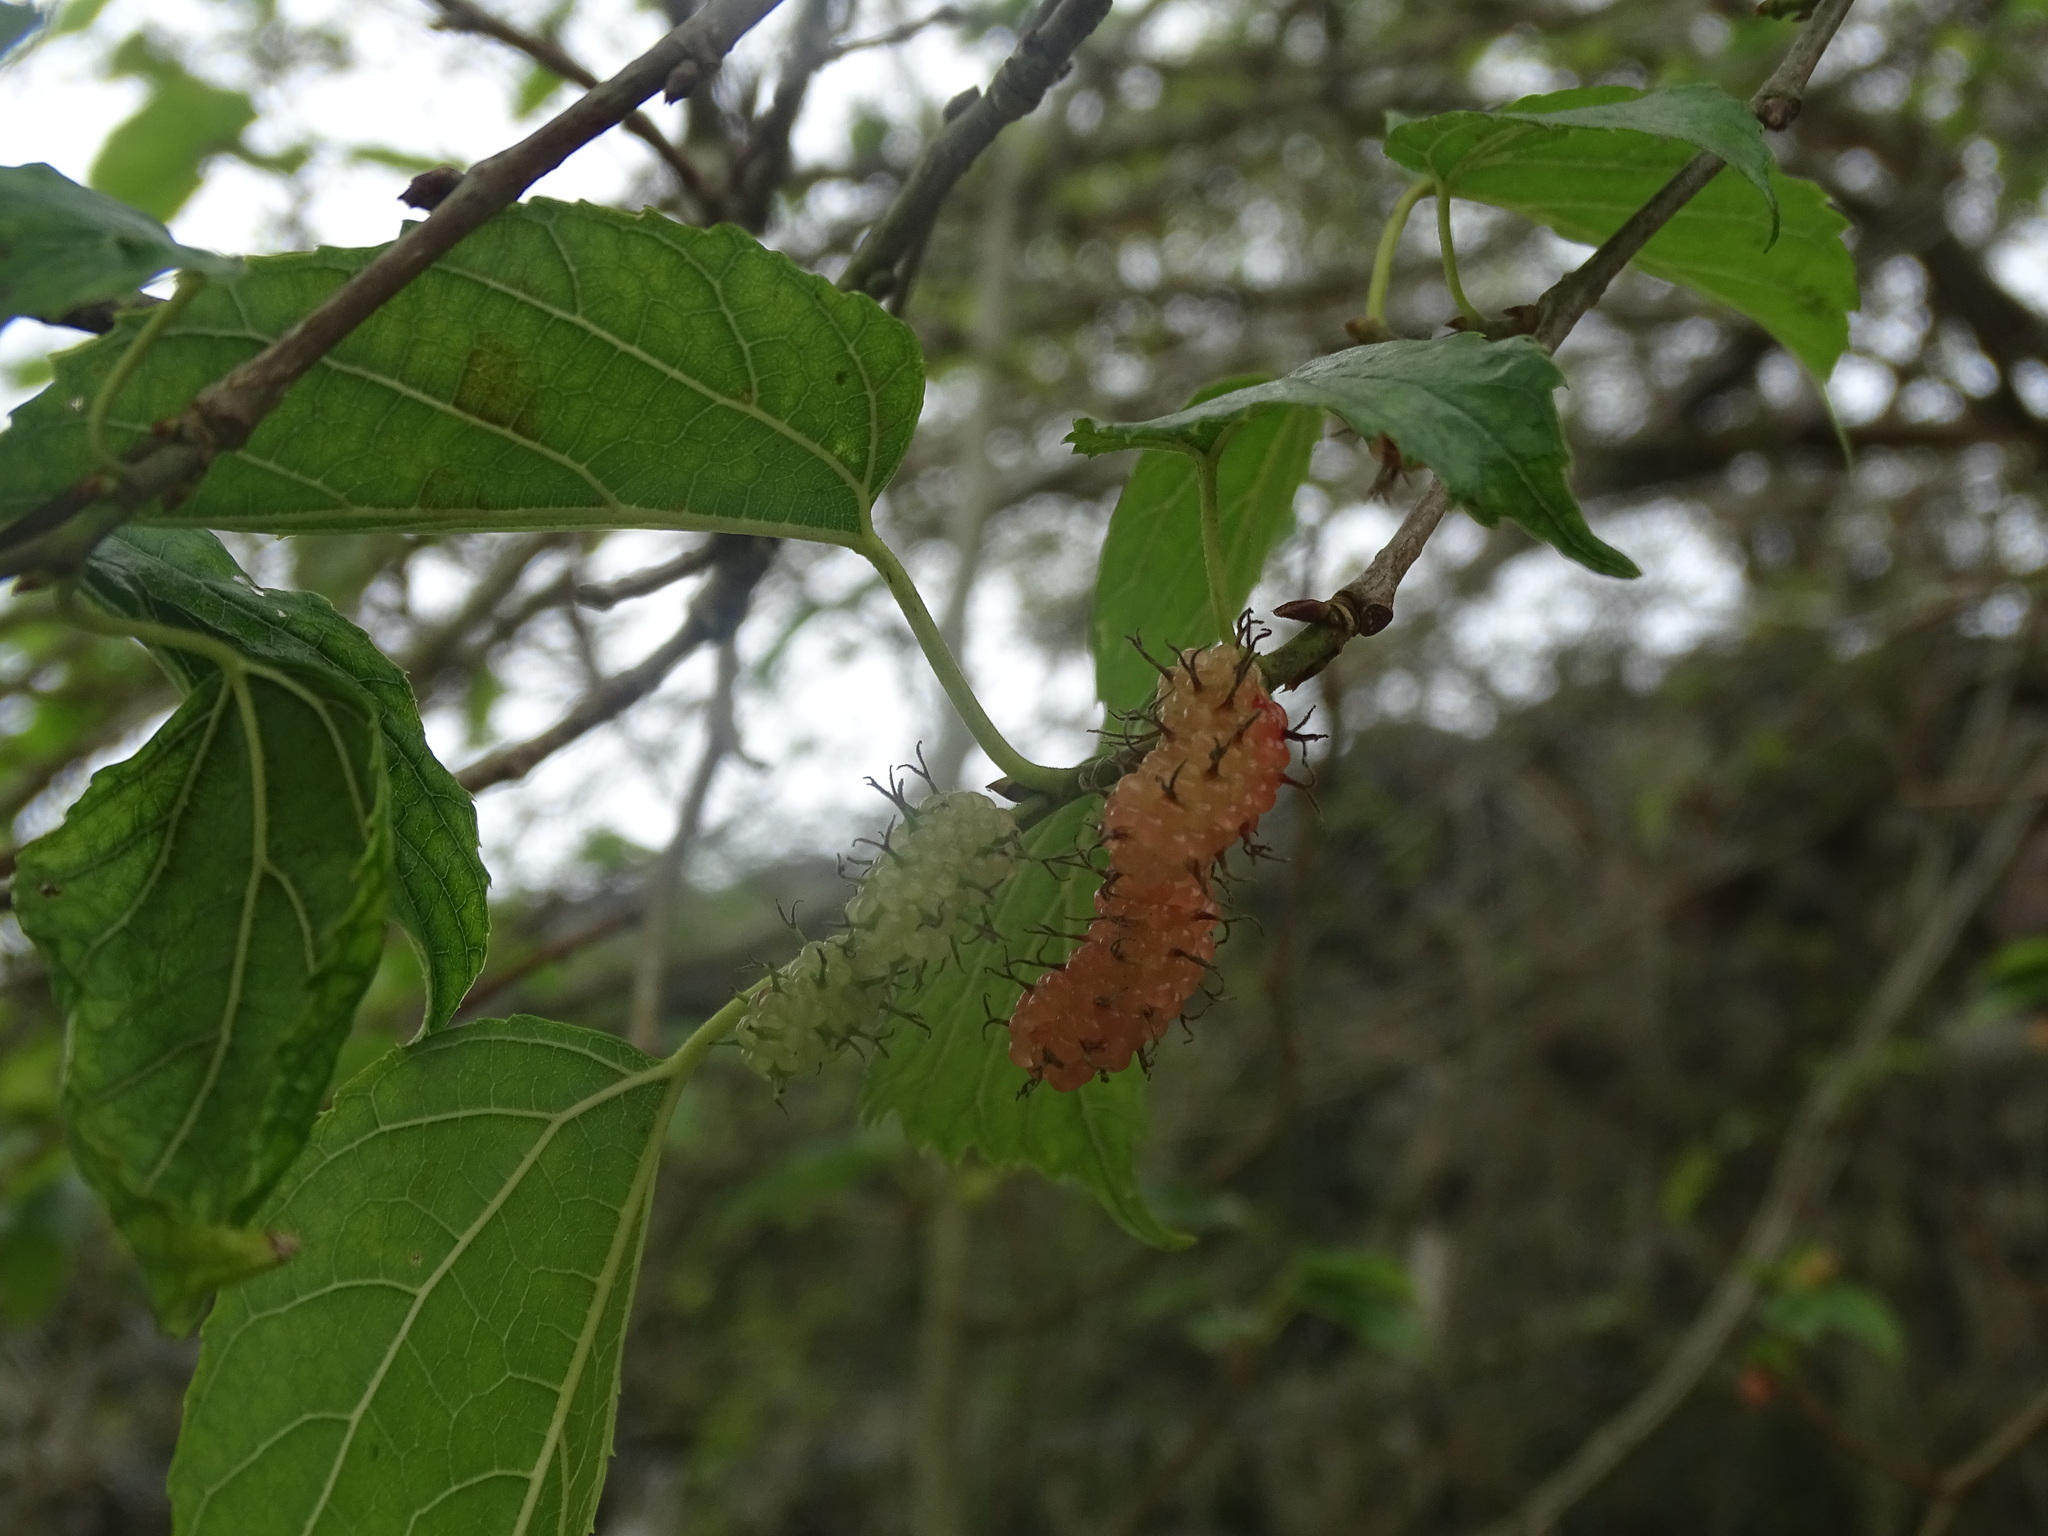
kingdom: Plantae
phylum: Tracheophyta
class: Magnoliopsida
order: Rosales
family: Moraceae
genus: Morus
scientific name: Morus indica
